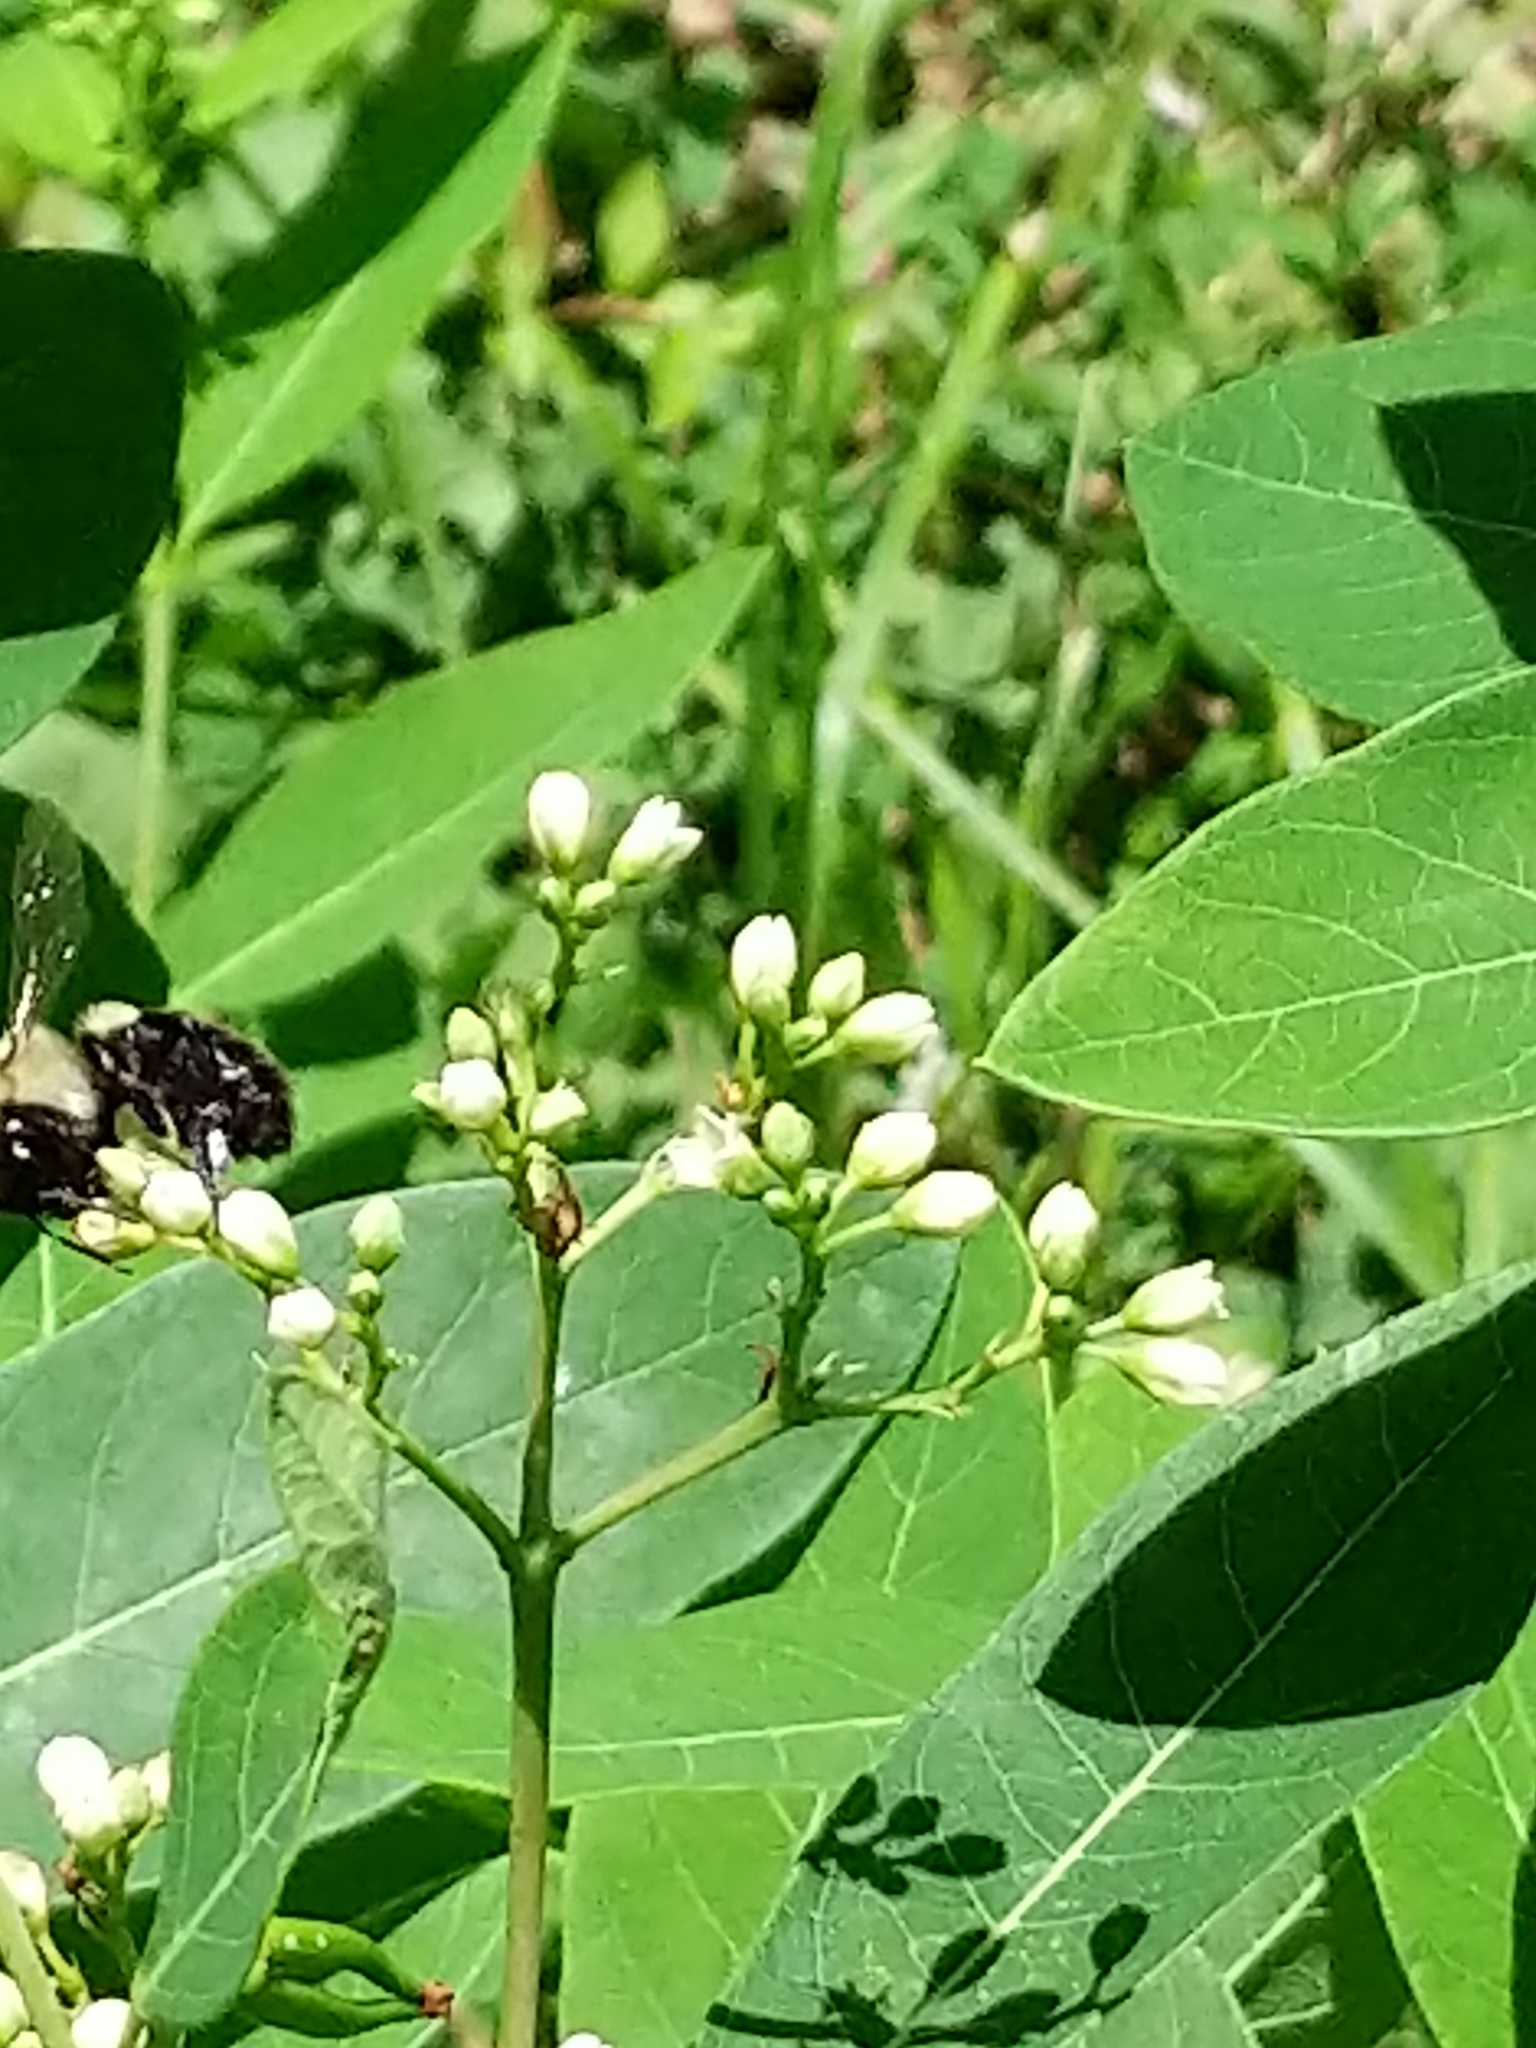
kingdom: Animalia
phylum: Arthropoda
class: Insecta
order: Hymenoptera
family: Apidae
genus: Bombus
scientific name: Bombus impatiens
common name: Common eastern bumble bee
